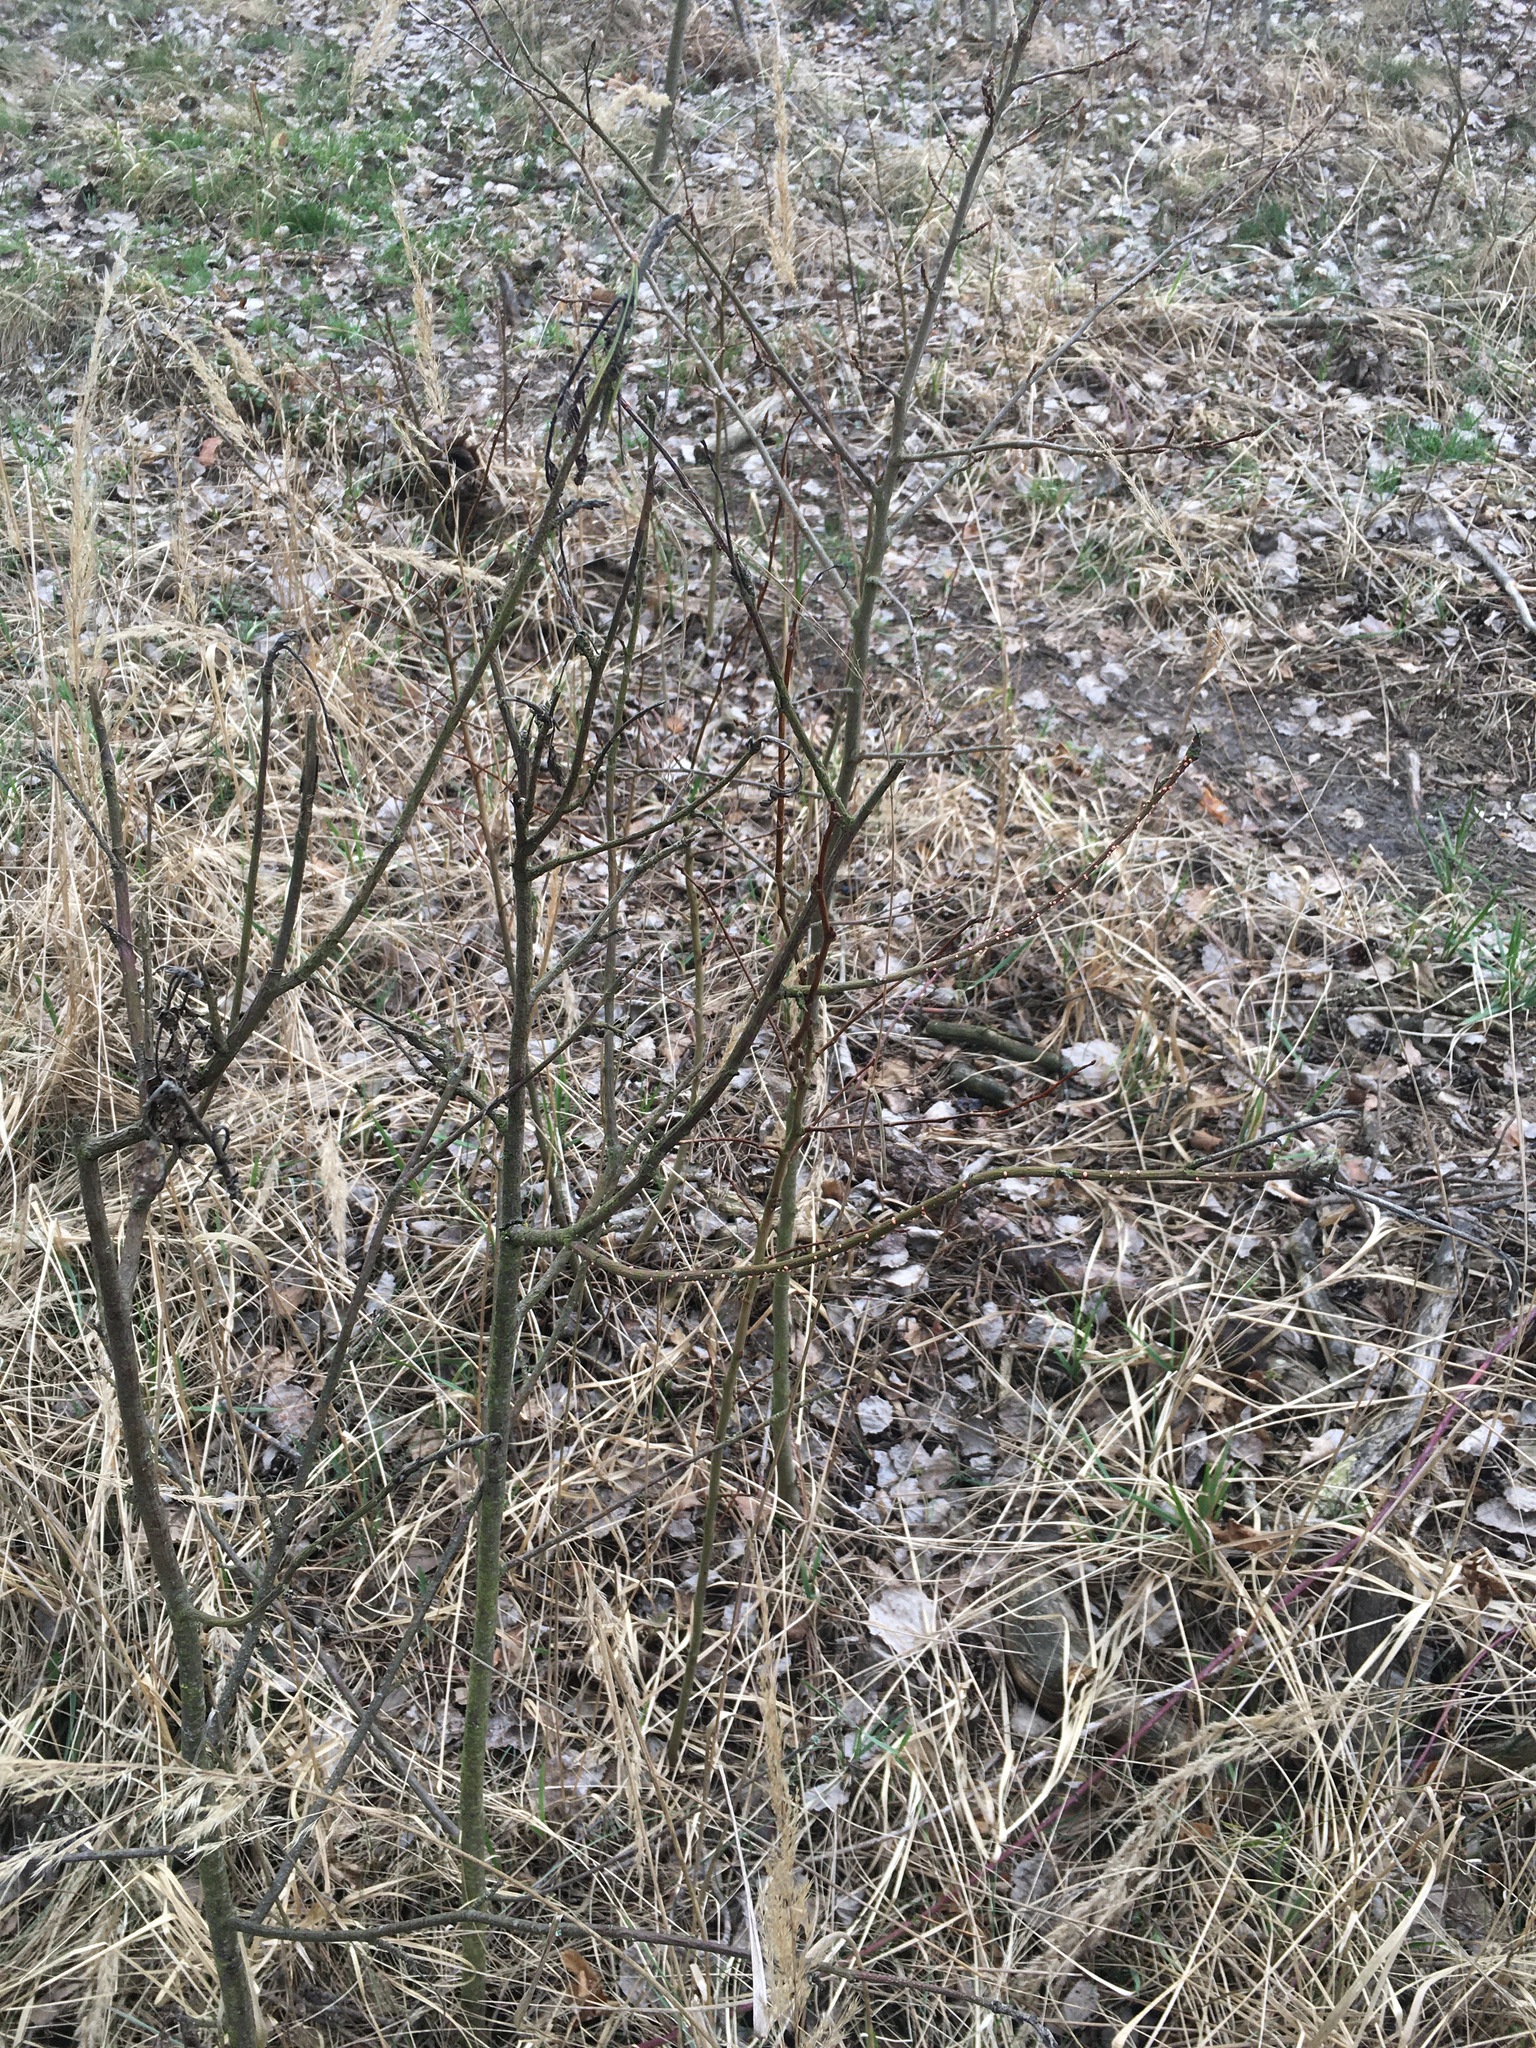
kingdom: Fungi
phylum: Ascomycota
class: Sordariomycetes
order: Hypocreales
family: Nectriaceae
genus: Nectria
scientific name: Nectria cinnabarina
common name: Coral spot
